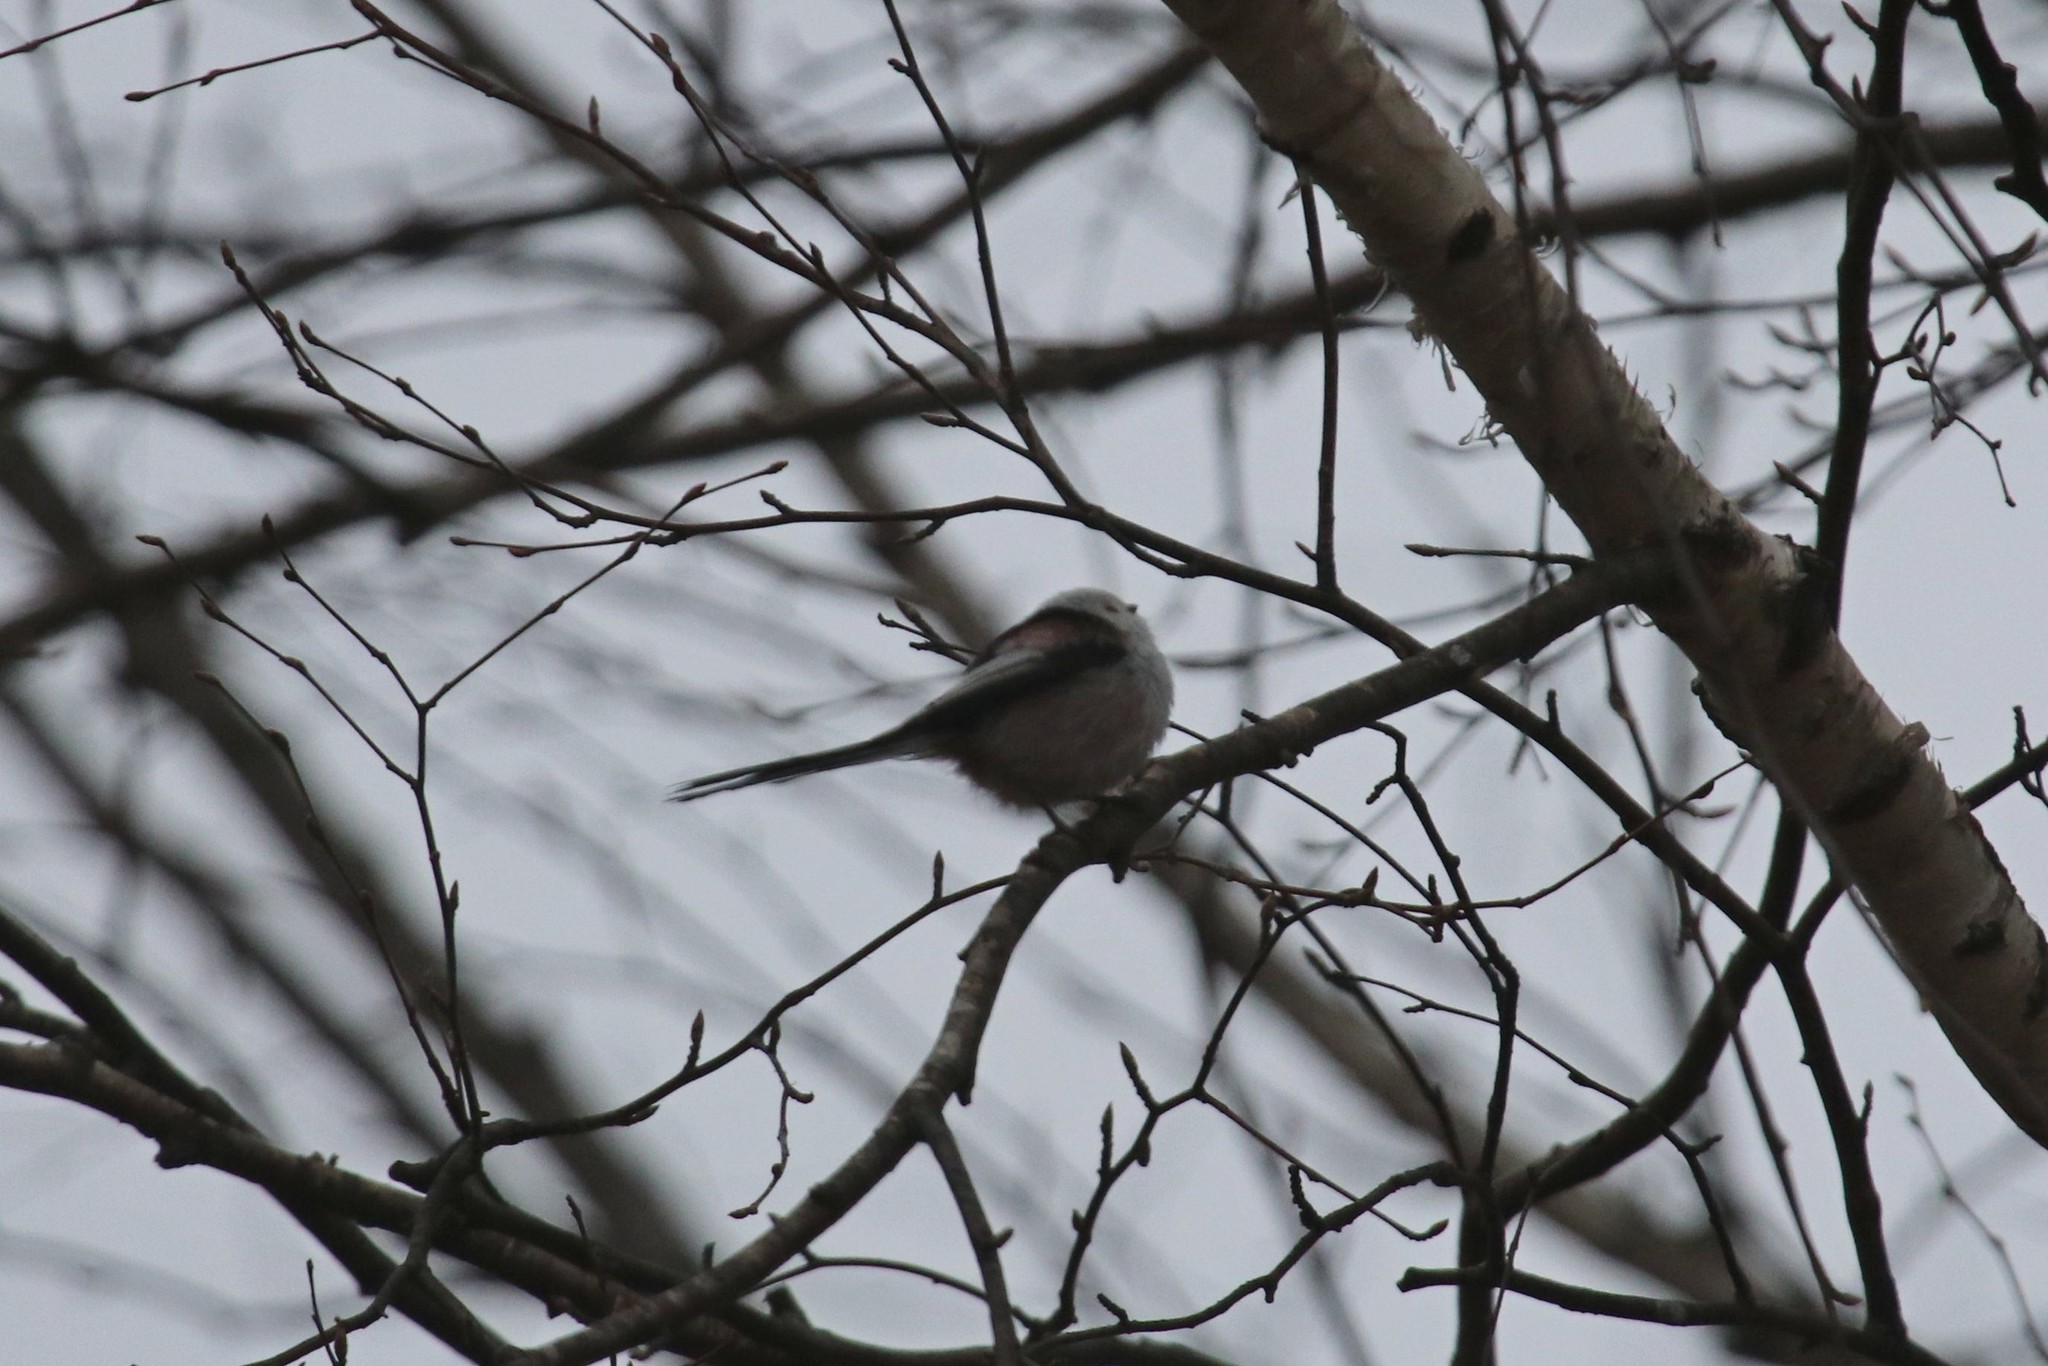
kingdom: Animalia
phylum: Chordata
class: Aves
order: Passeriformes
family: Aegithalidae
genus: Aegithalos
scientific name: Aegithalos caudatus
